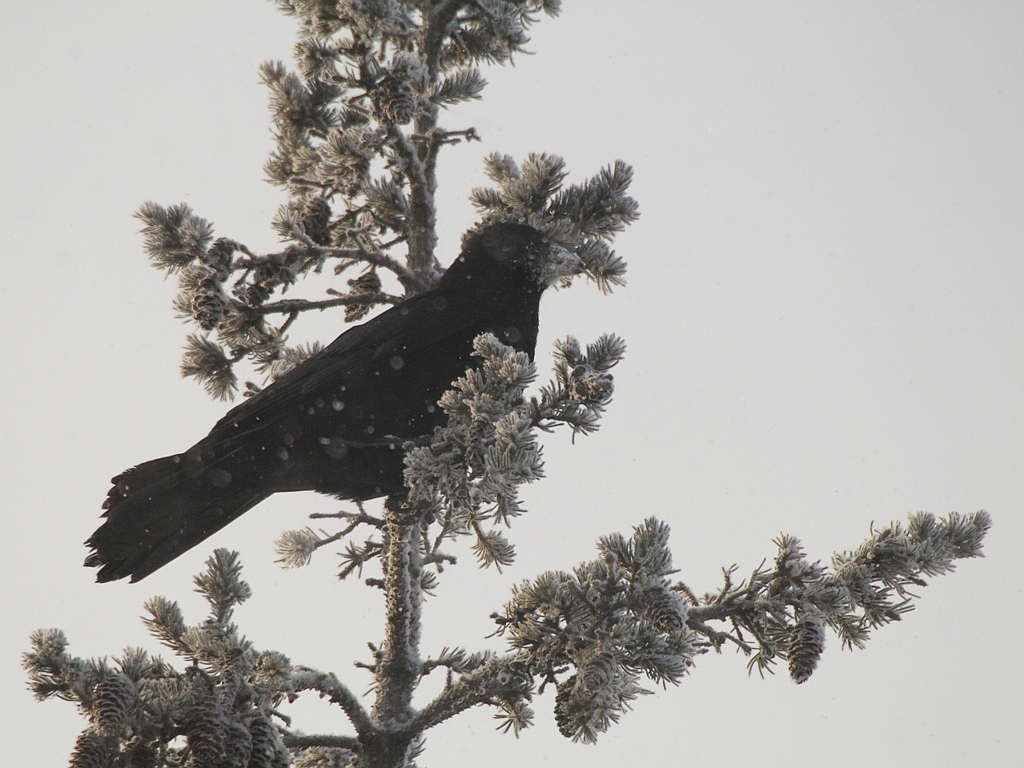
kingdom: Animalia
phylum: Chordata
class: Aves
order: Passeriformes
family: Corvidae
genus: Corvus
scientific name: Corvus corone
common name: Carrion crow
